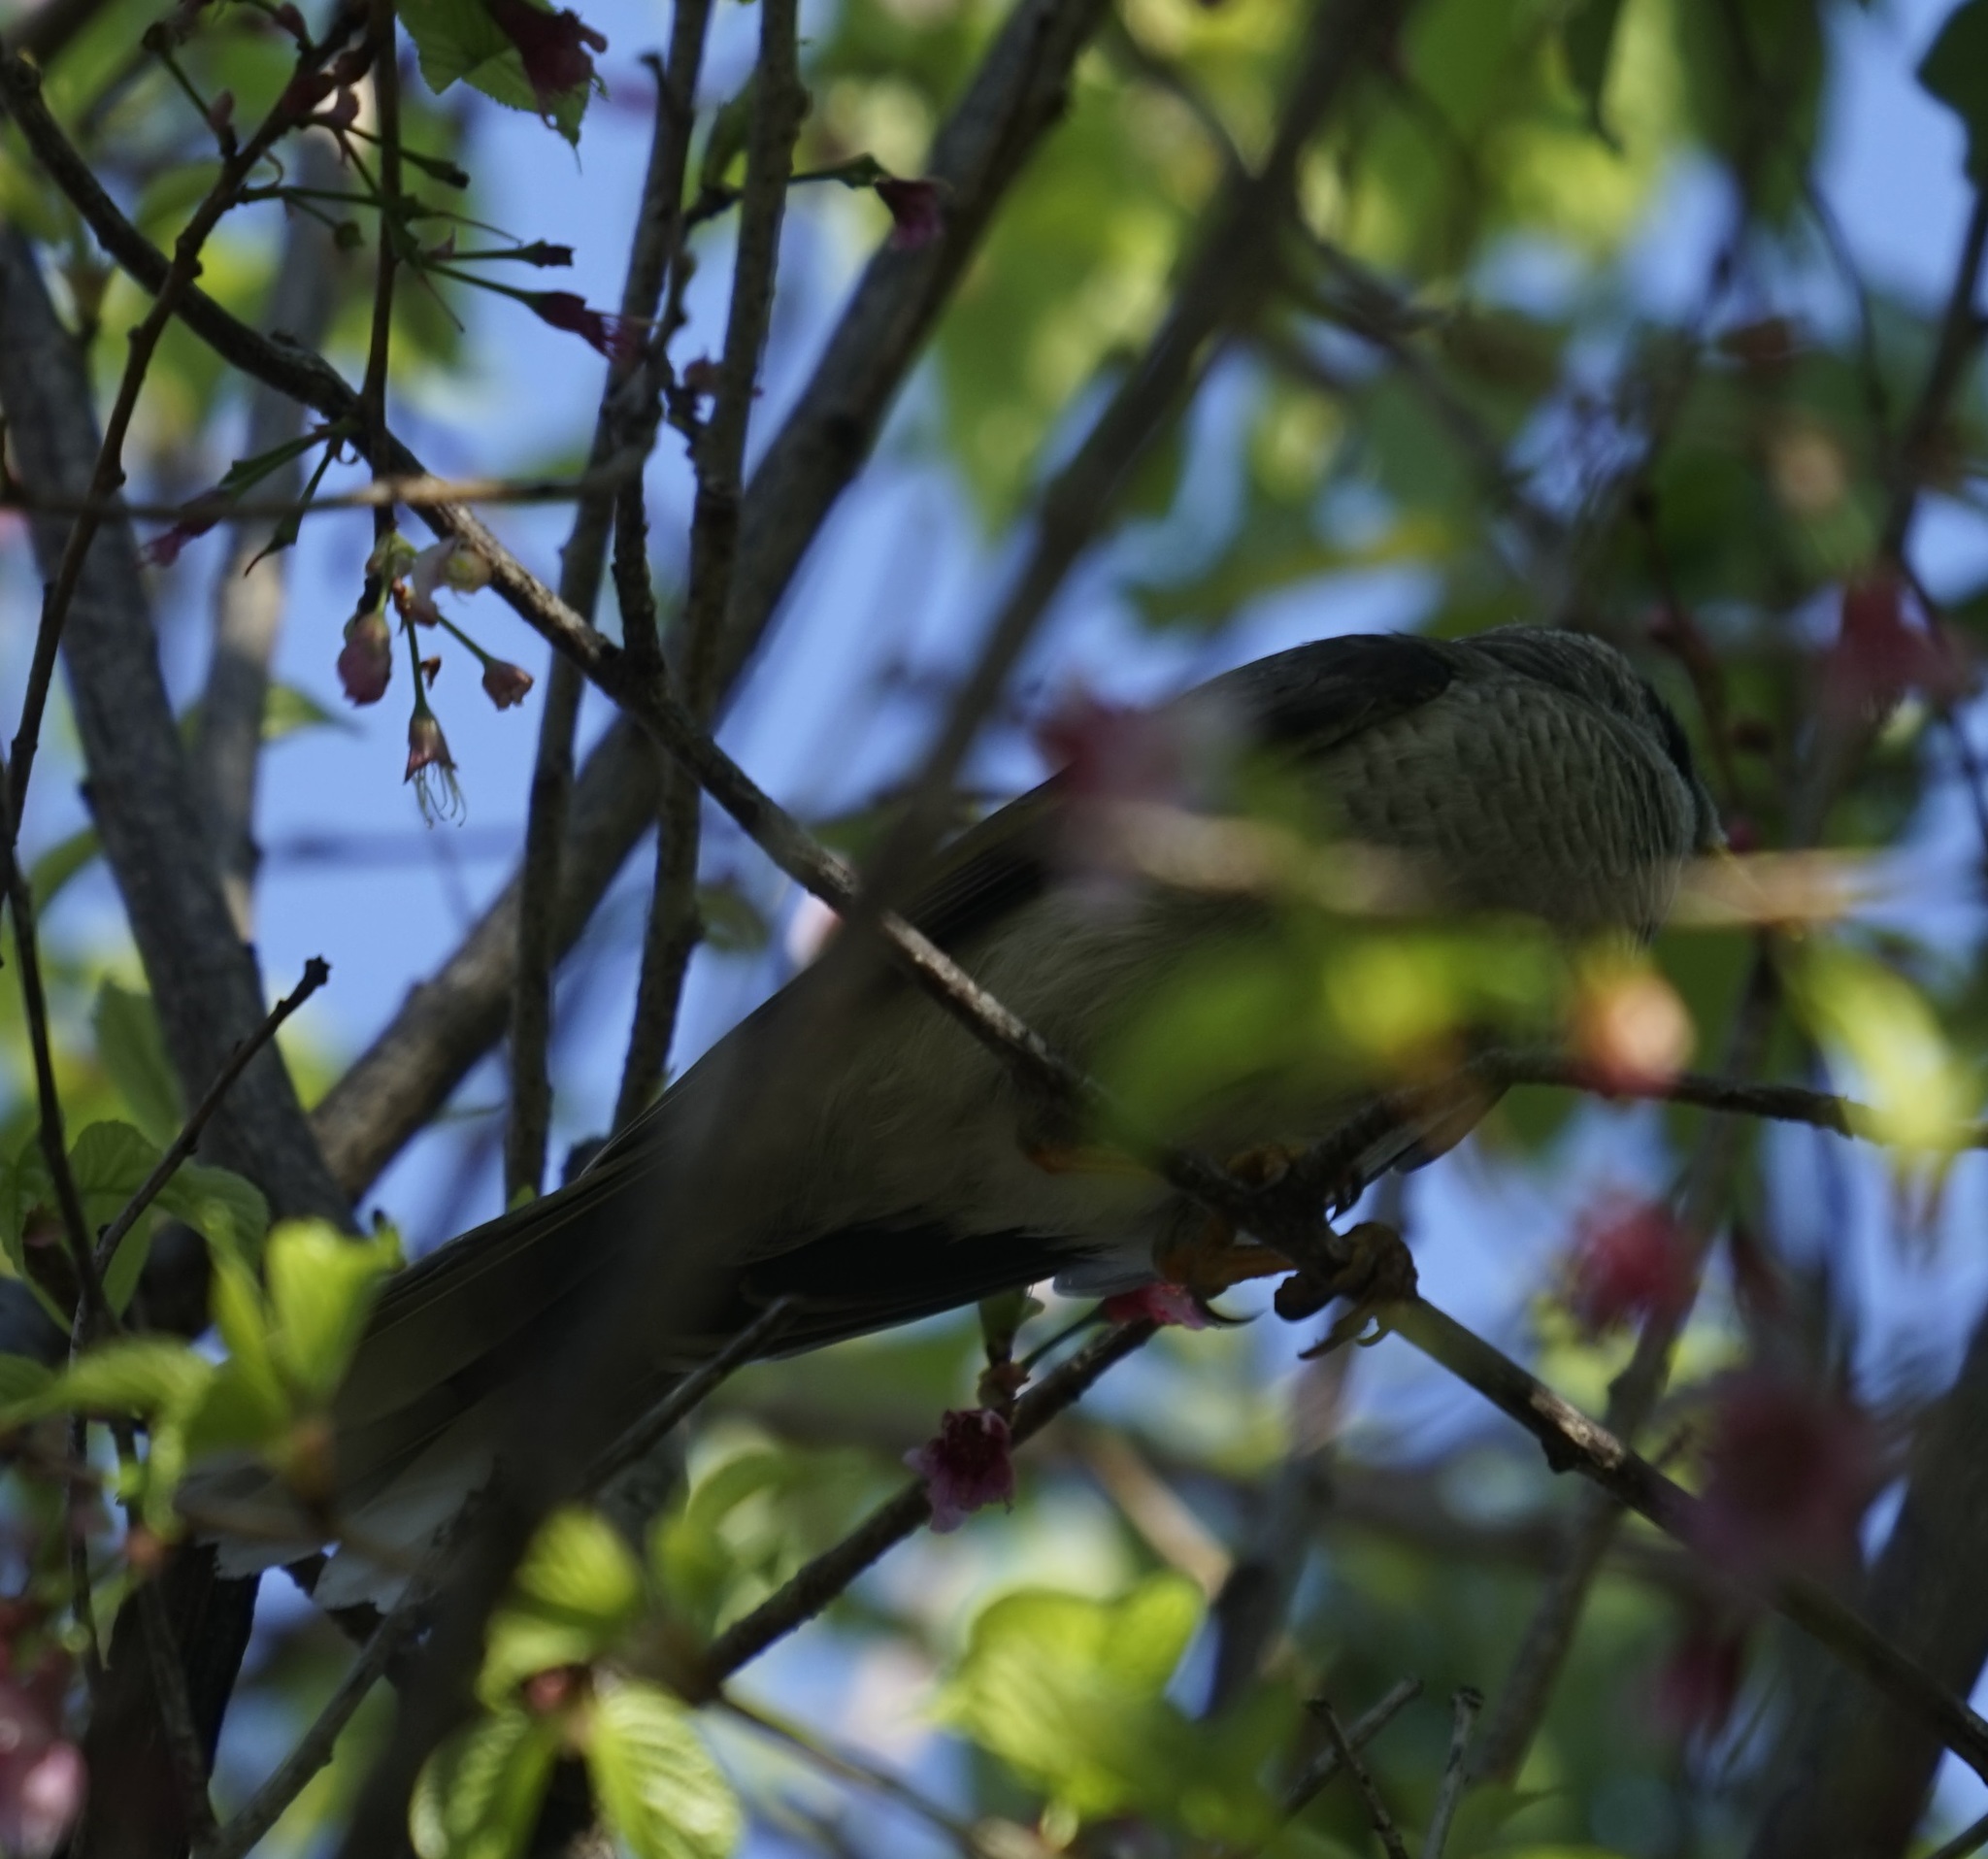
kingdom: Animalia
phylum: Chordata
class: Aves
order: Passeriformes
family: Meliphagidae
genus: Manorina
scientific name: Manorina melanocephala
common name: Noisy miner
